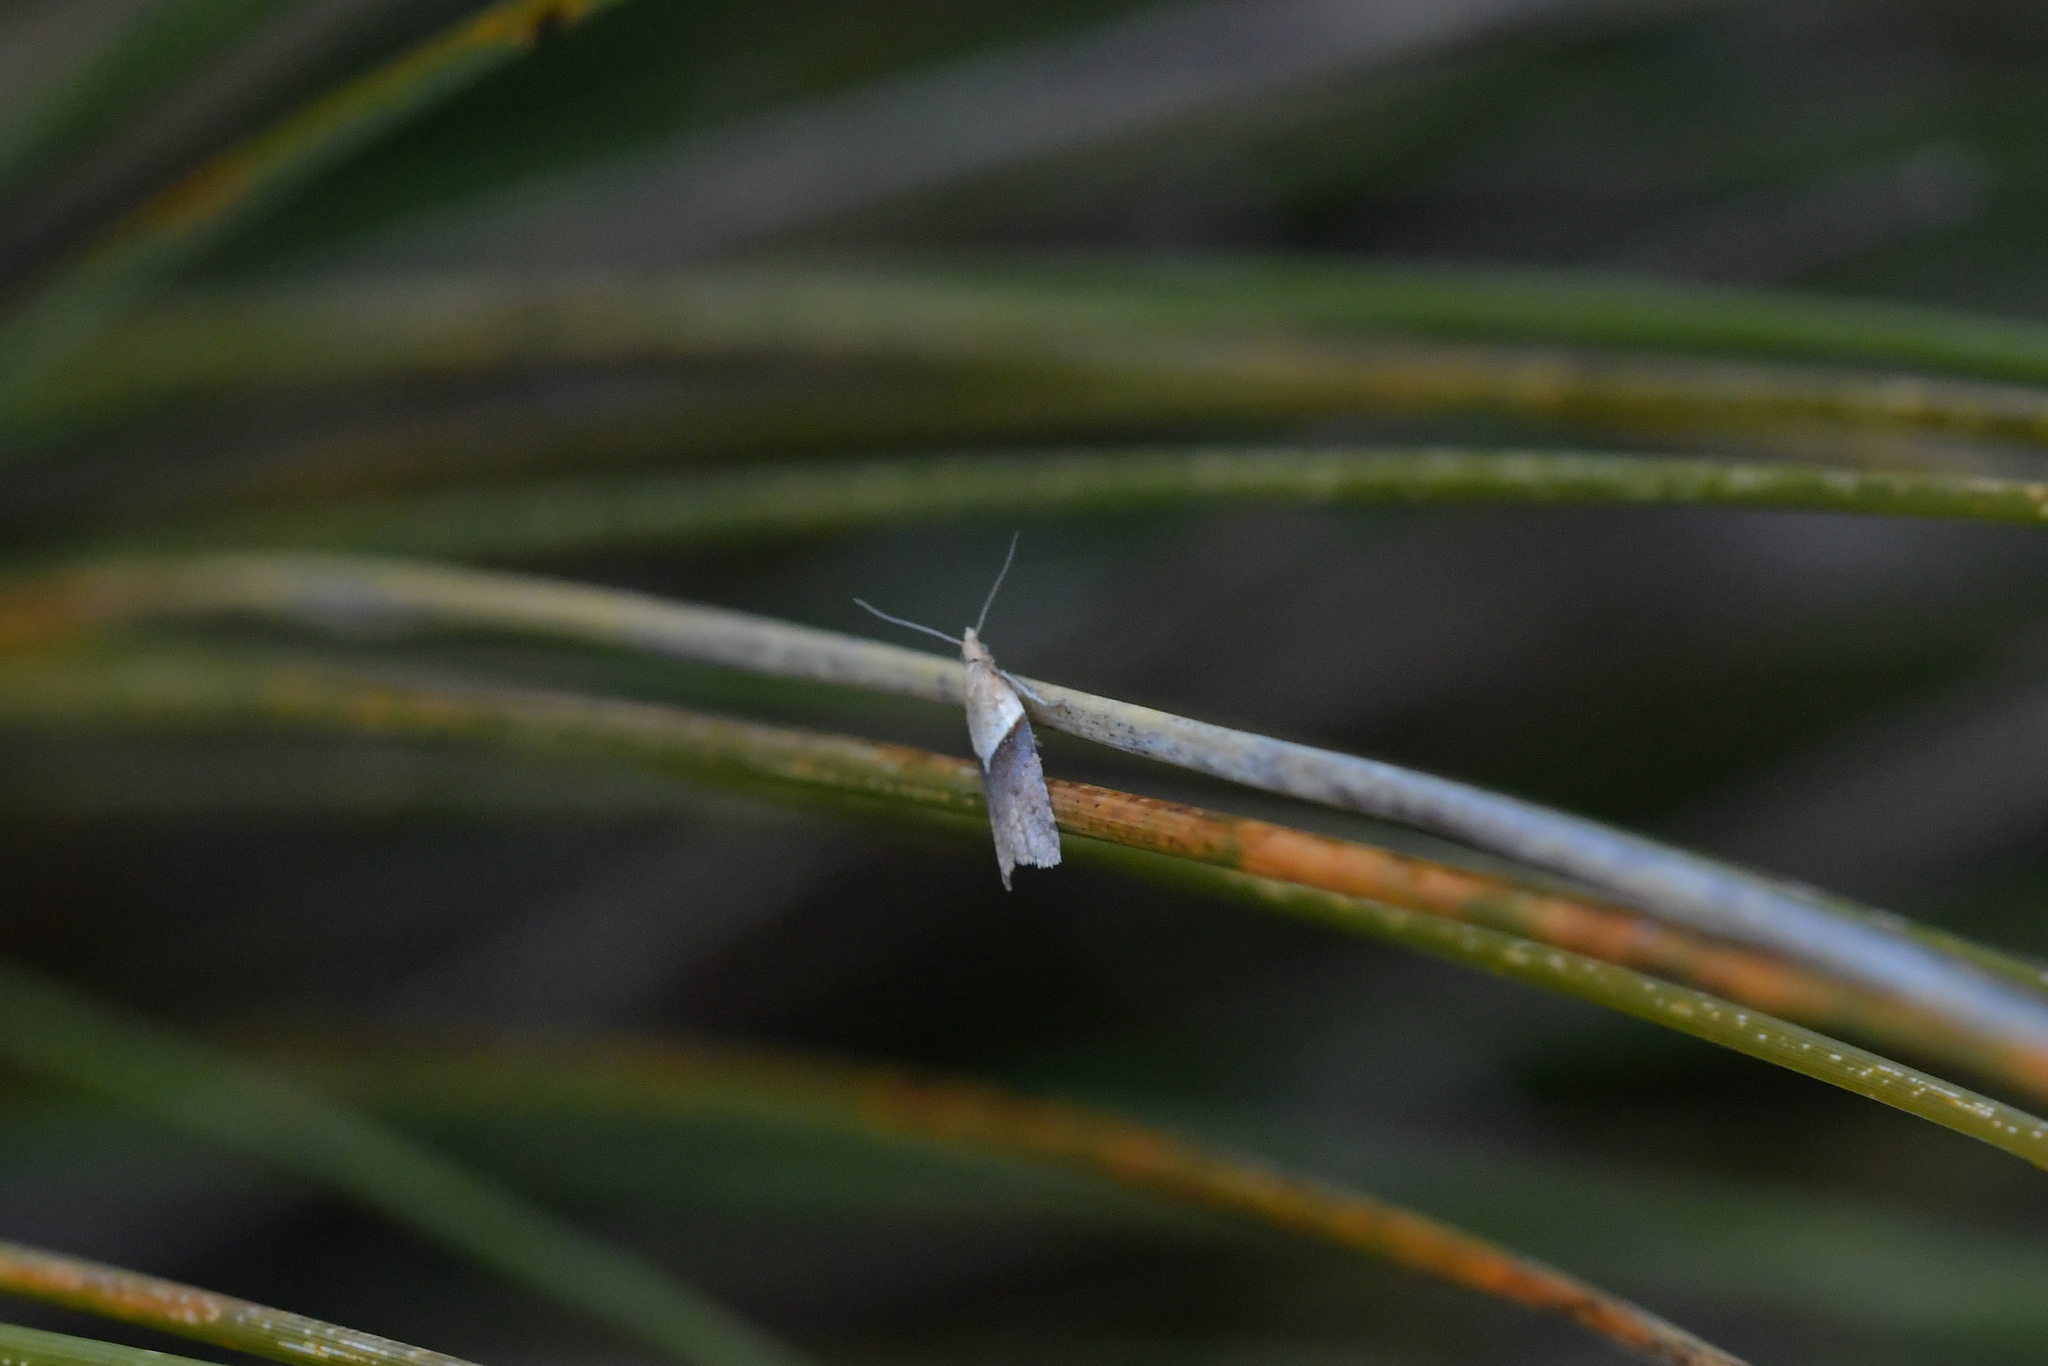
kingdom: Animalia
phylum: Arthropoda
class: Insecta
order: Lepidoptera
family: Tortricidae
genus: Epichorista
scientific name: Epichorista hemionana
